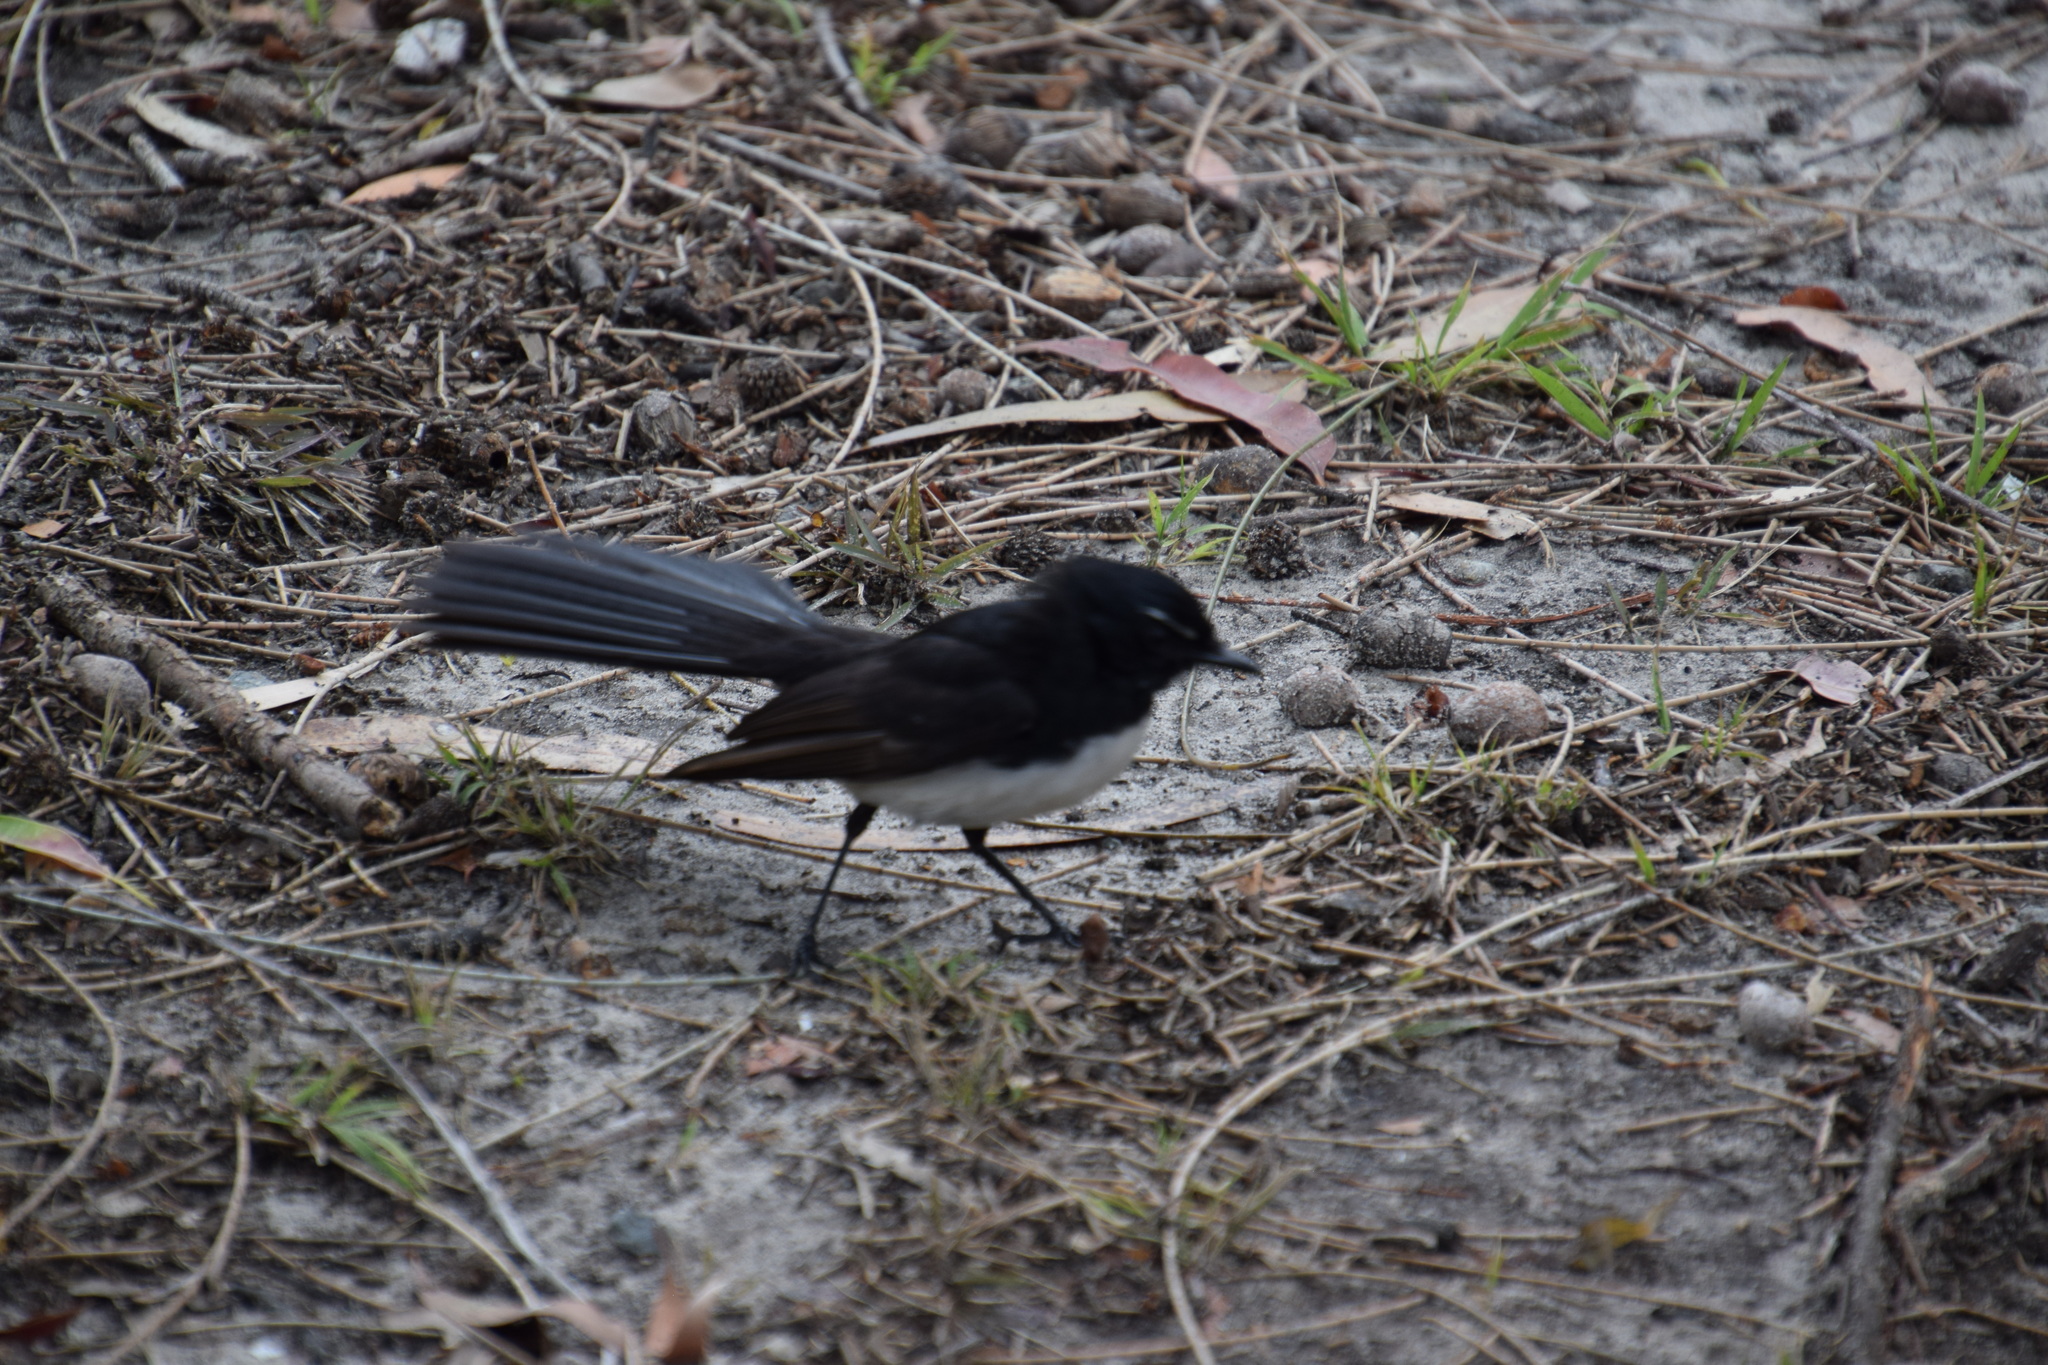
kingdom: Animalia
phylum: Chordata
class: Aves
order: Passeriformes
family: Rhipiduridae
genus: Rhipidura
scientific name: Rhipidura leucophrys
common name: Willie wagtail
